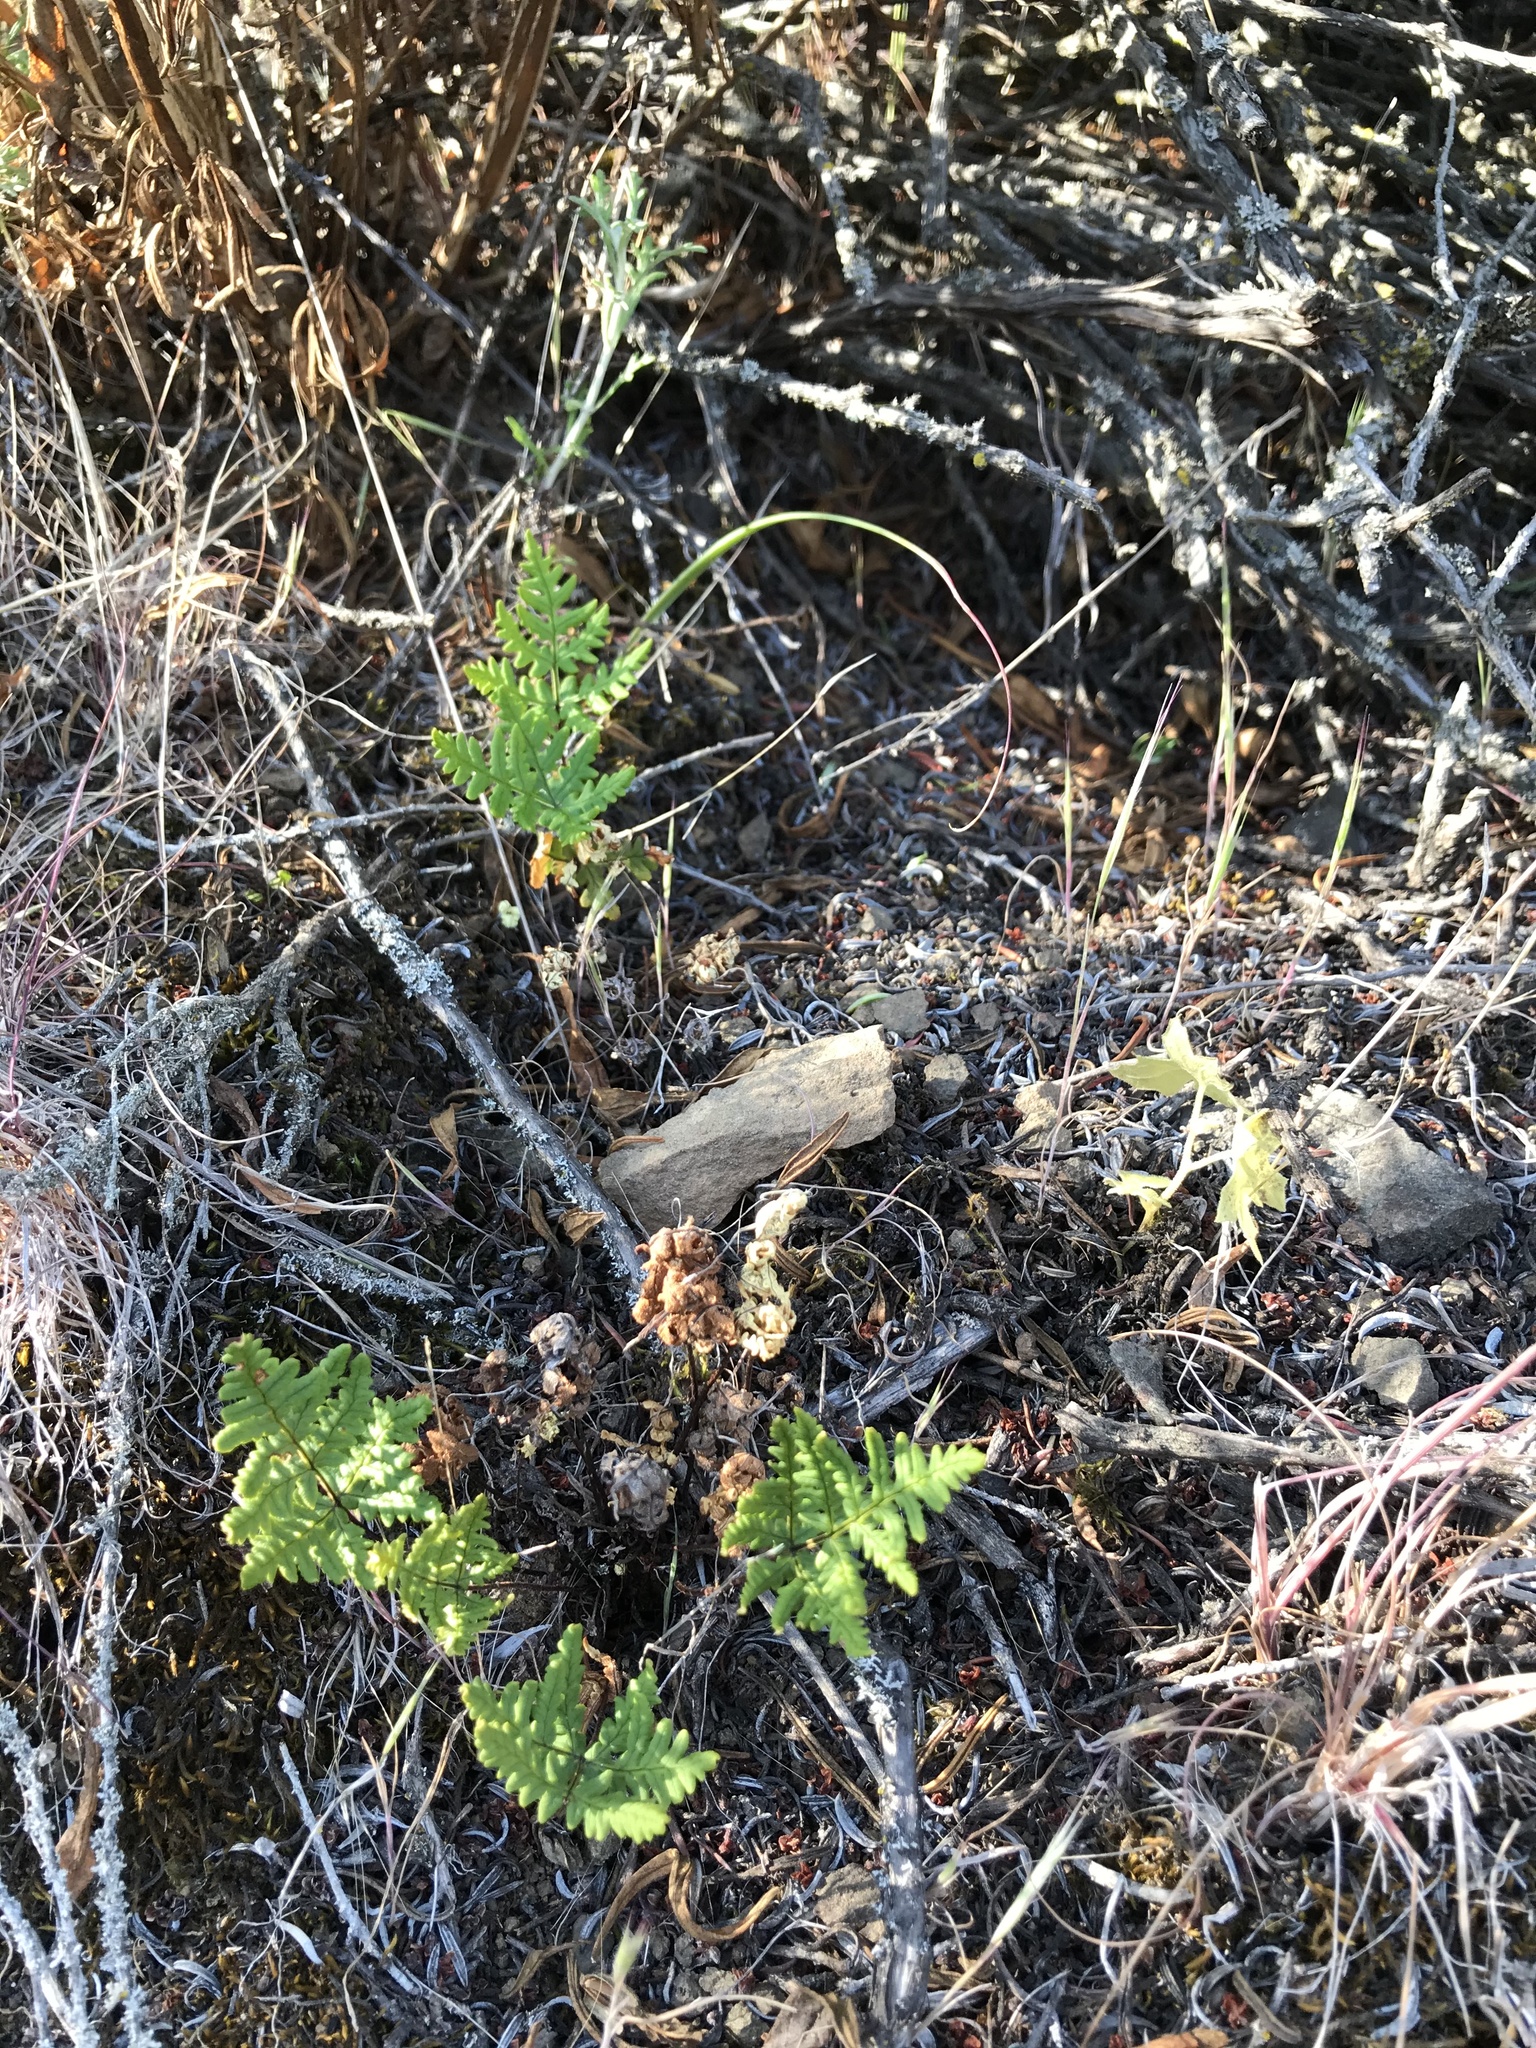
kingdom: Plantae
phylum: Tracheophyta
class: Polypodiopsida
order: Polypodiales
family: Pteridaceae
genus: Pentagramma
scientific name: Pentagramma triangularis
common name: Gold fern
